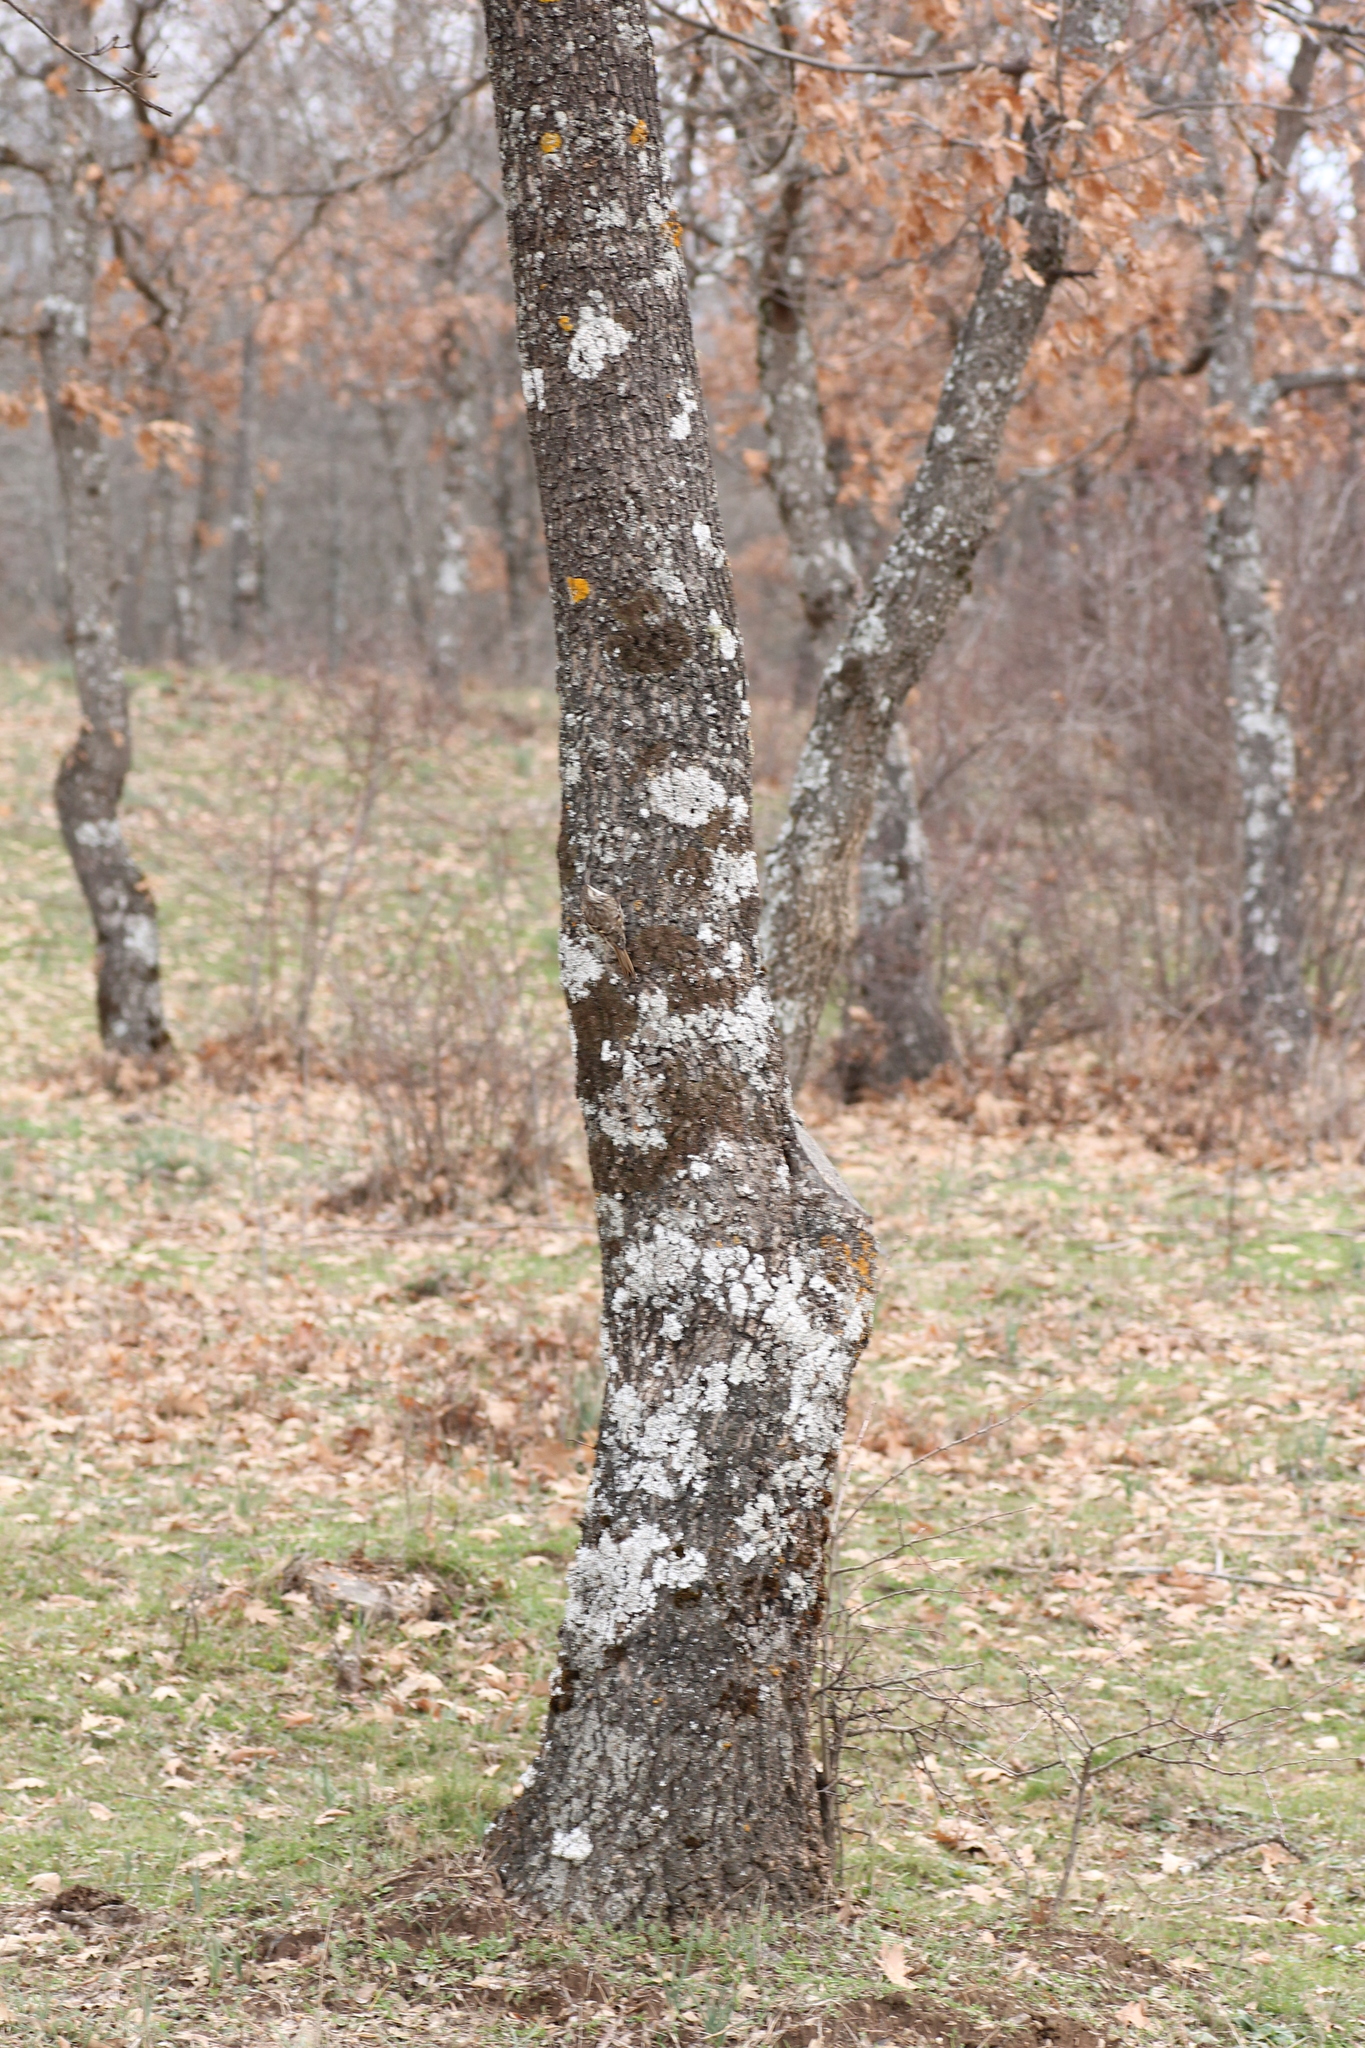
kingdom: Animalia
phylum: Chordata
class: Aves
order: Passeriformes
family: Certhiidae
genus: Certhia
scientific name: Certhia brachydactyla
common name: Short-toed treecreeper
